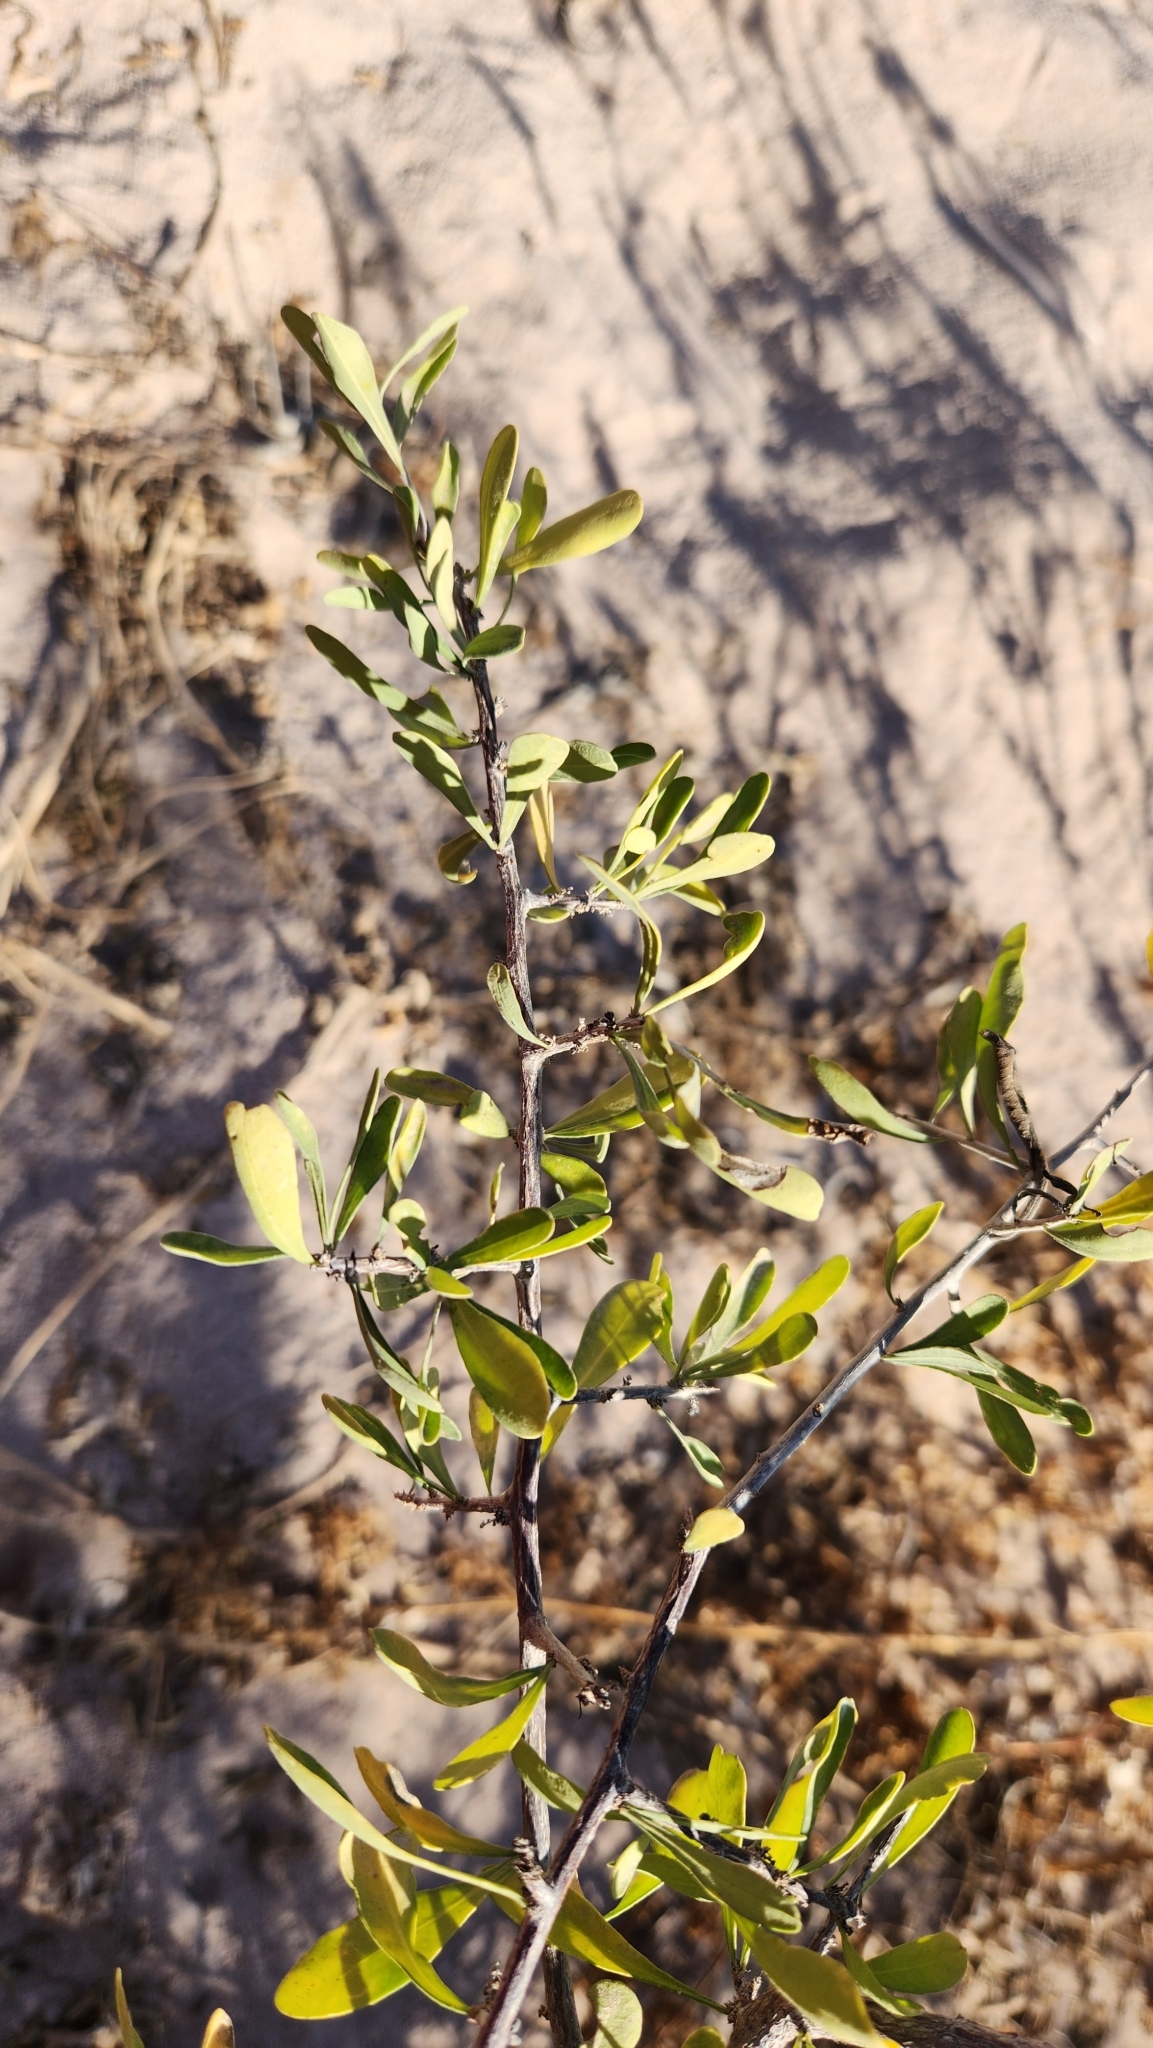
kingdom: Plantae
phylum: Tracheophyta
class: Magnoliopsida
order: Caryophyllales
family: Achatocarpaceae
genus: Phaulothamnus
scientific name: Phaulothamnus spinescens
